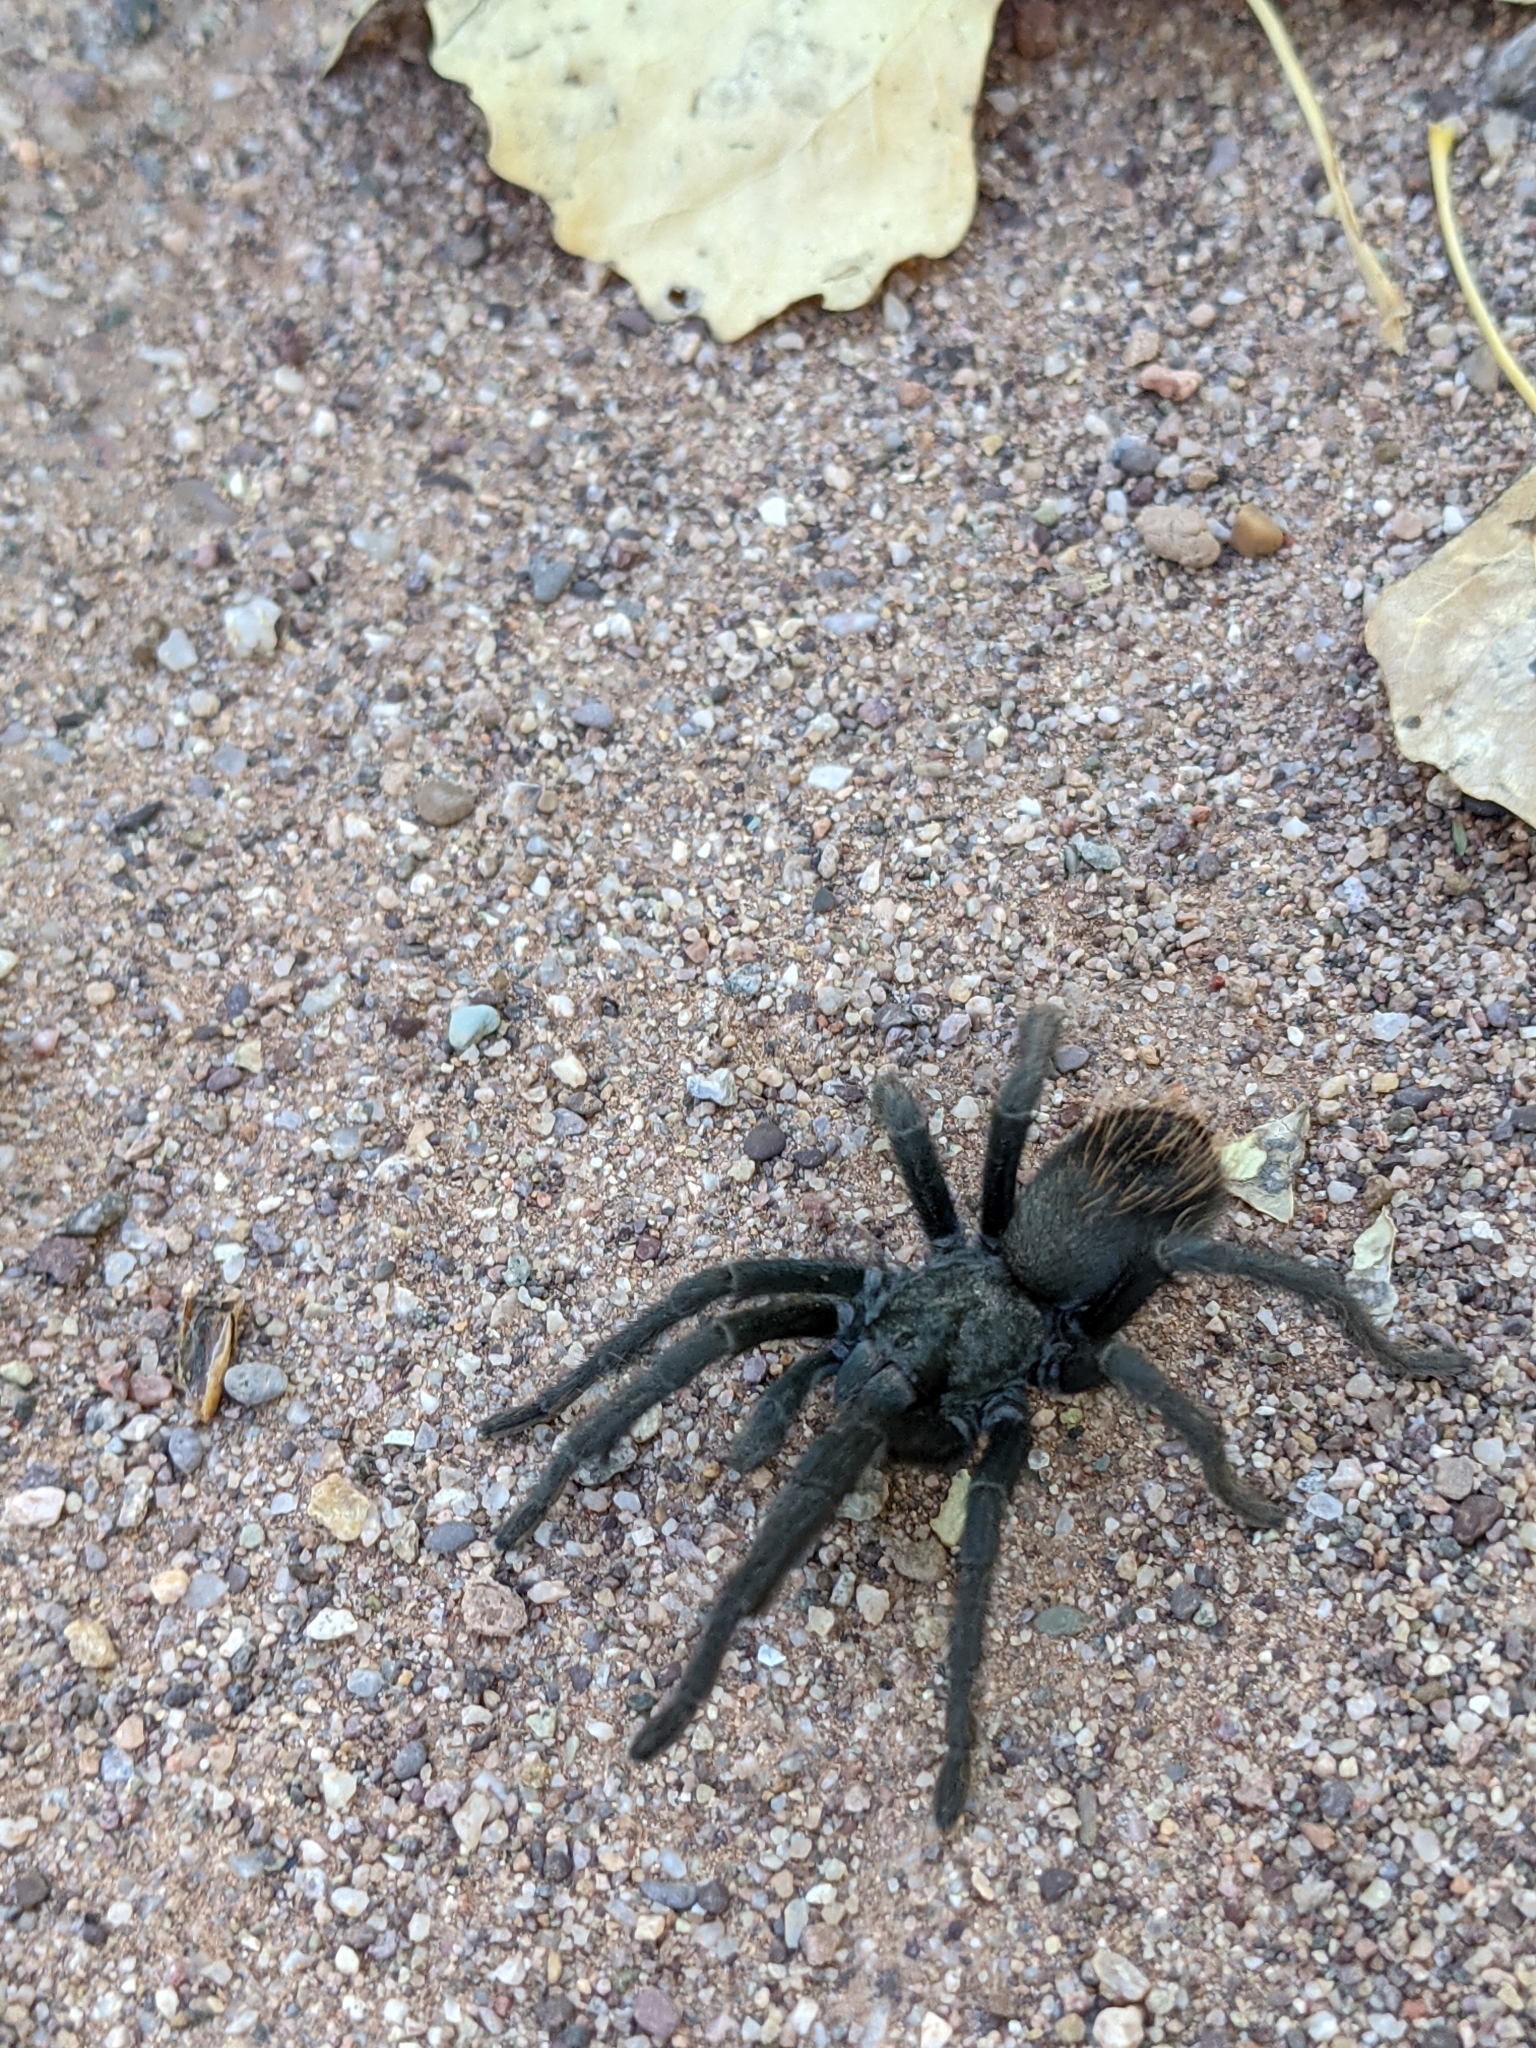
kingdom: Animalia
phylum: Arthropoda
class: Arachnida
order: Araneae
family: Theraphosidae
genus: Aphonopelma
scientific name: Aphonopelma vorhiesi
